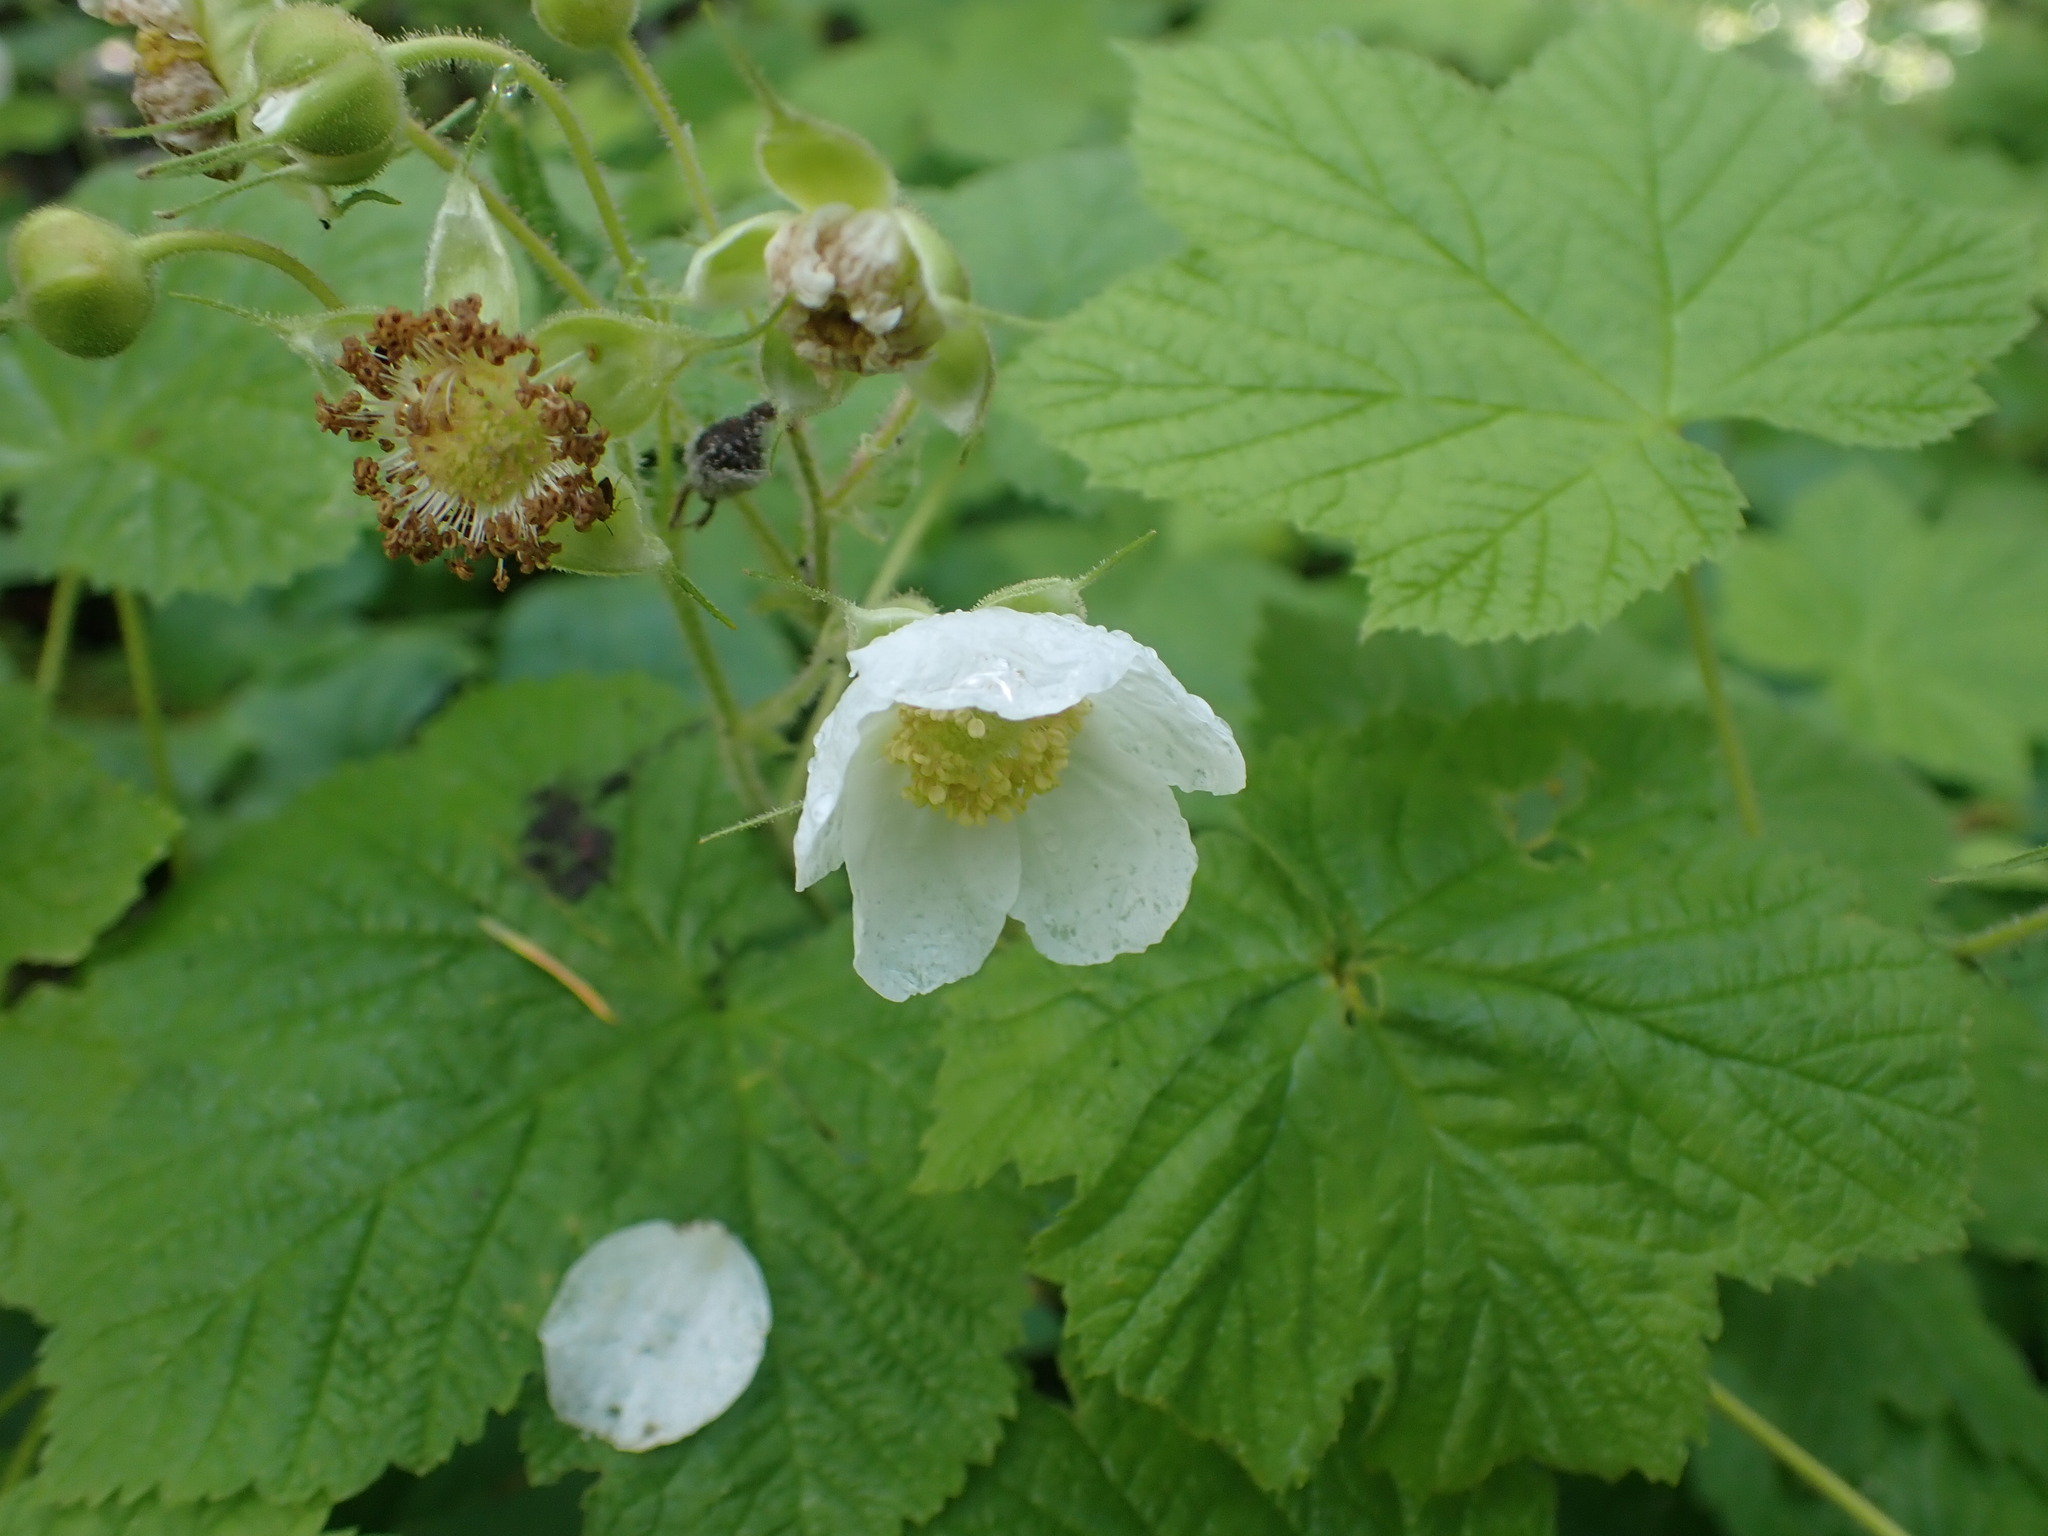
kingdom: Plantae
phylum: Tracheophyta
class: Magnoliopsida
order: Rosales
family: Rosaceae
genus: Rubus
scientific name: Rubus parviflorus
